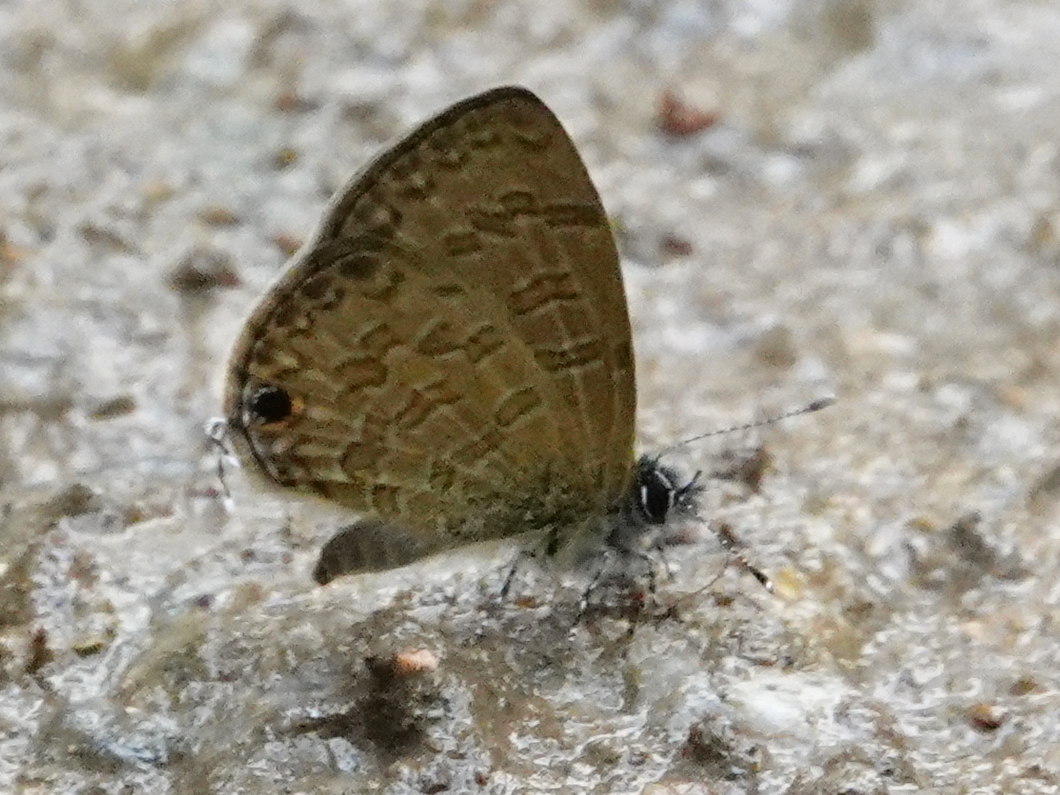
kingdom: Animalia
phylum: Arthropoda
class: Insecta
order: Lepidoptera
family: Lycaenidae
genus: Prosotas
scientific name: Prosotas nora
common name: Common line blue
